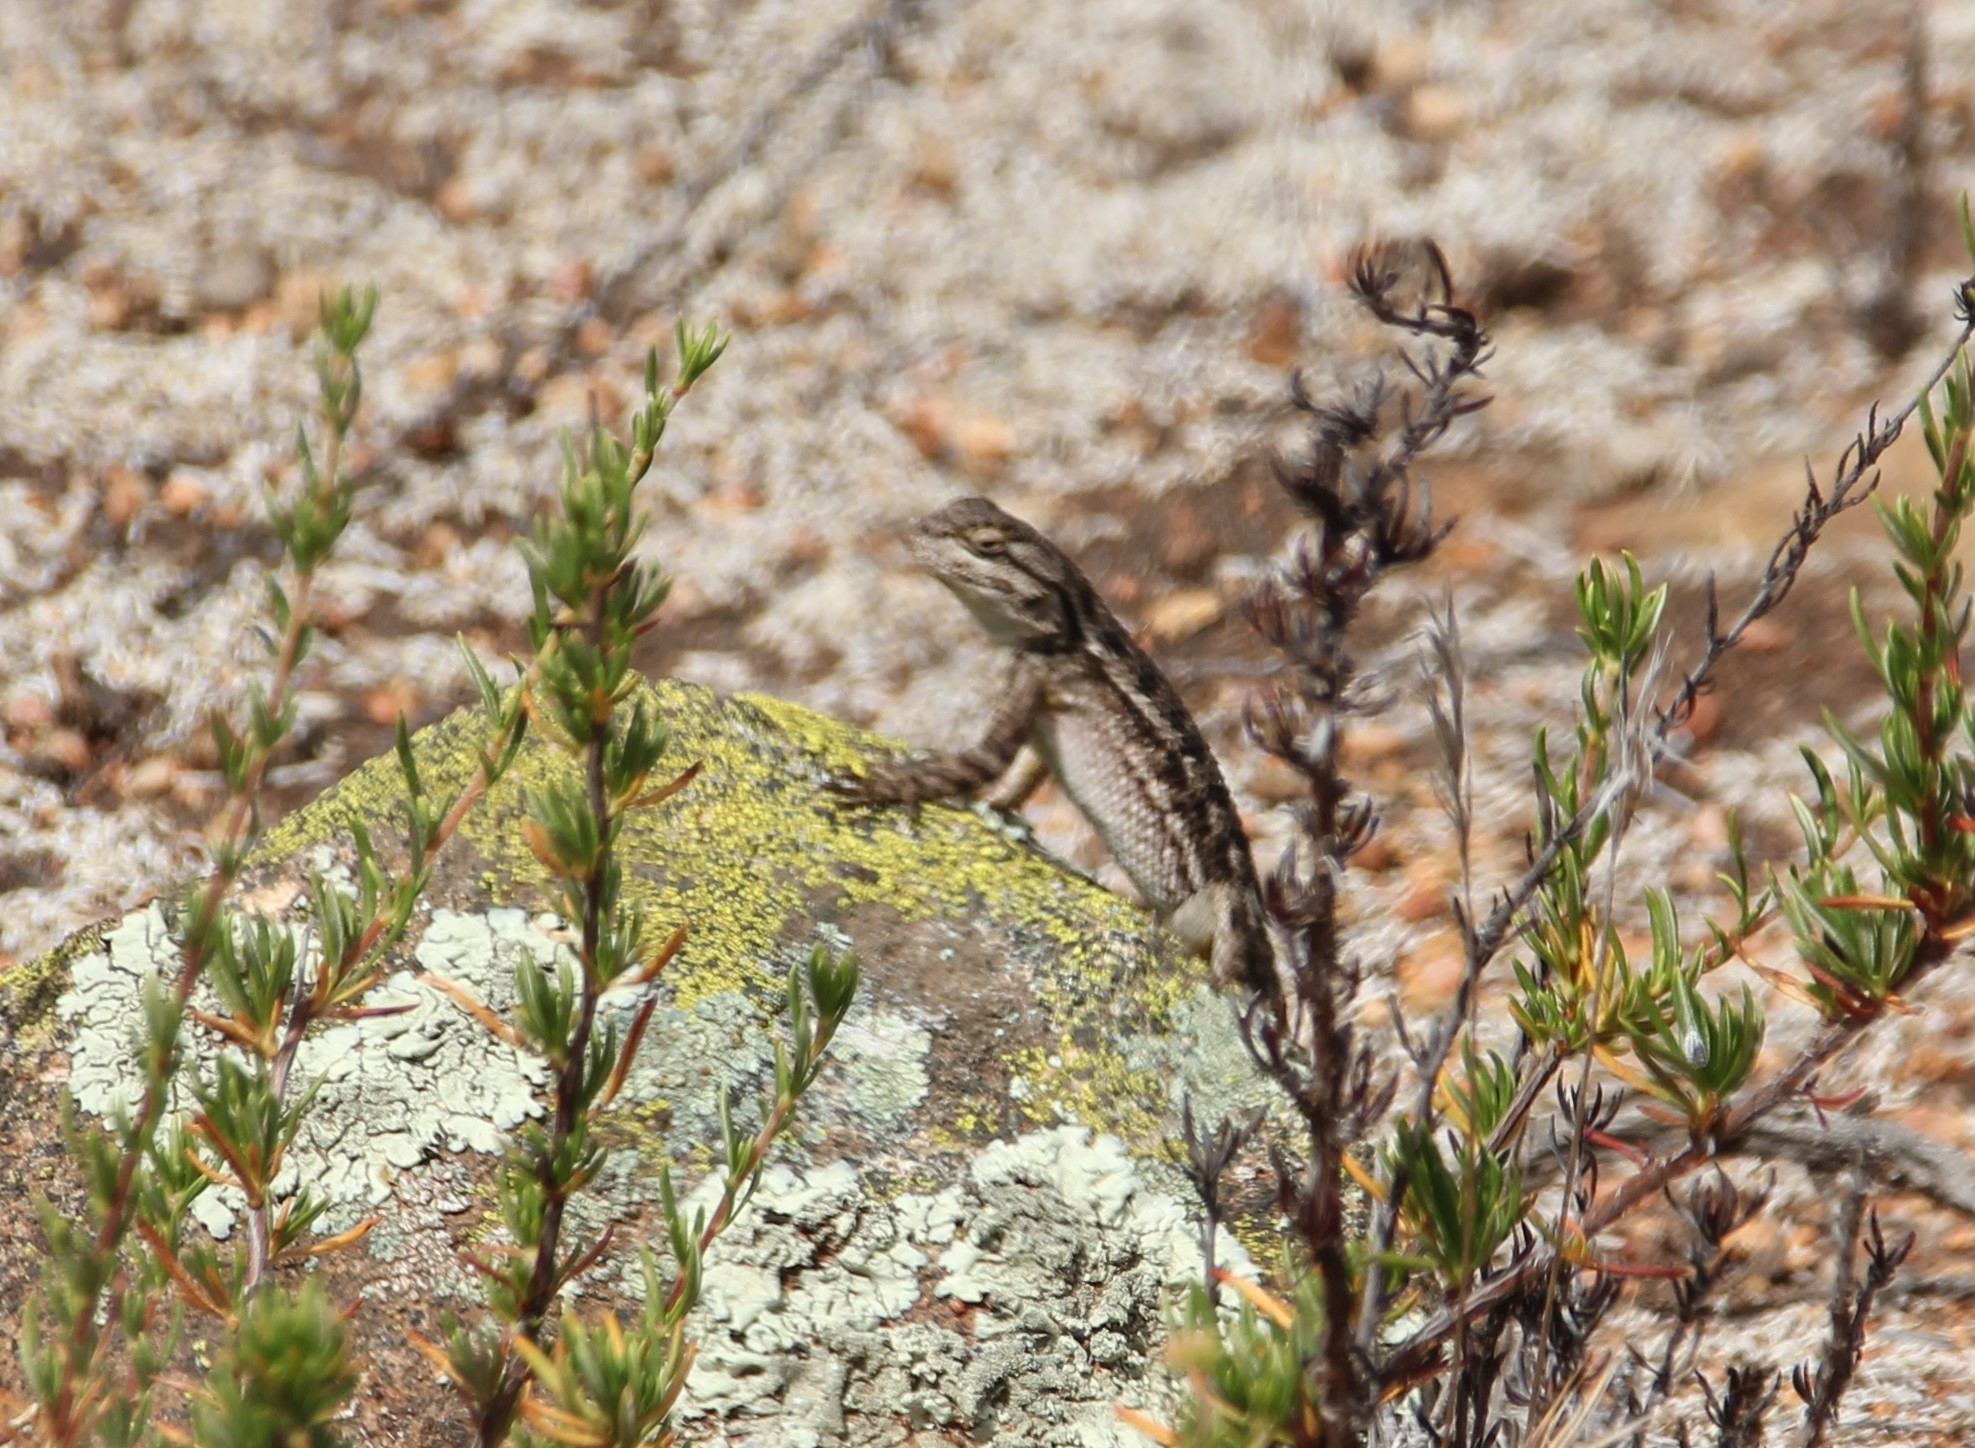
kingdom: Animalia
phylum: Chordata
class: Squamata
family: Phrynosomatidae
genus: Sceloporus
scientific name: Sceloporus occidentalis
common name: Western fence lizard
